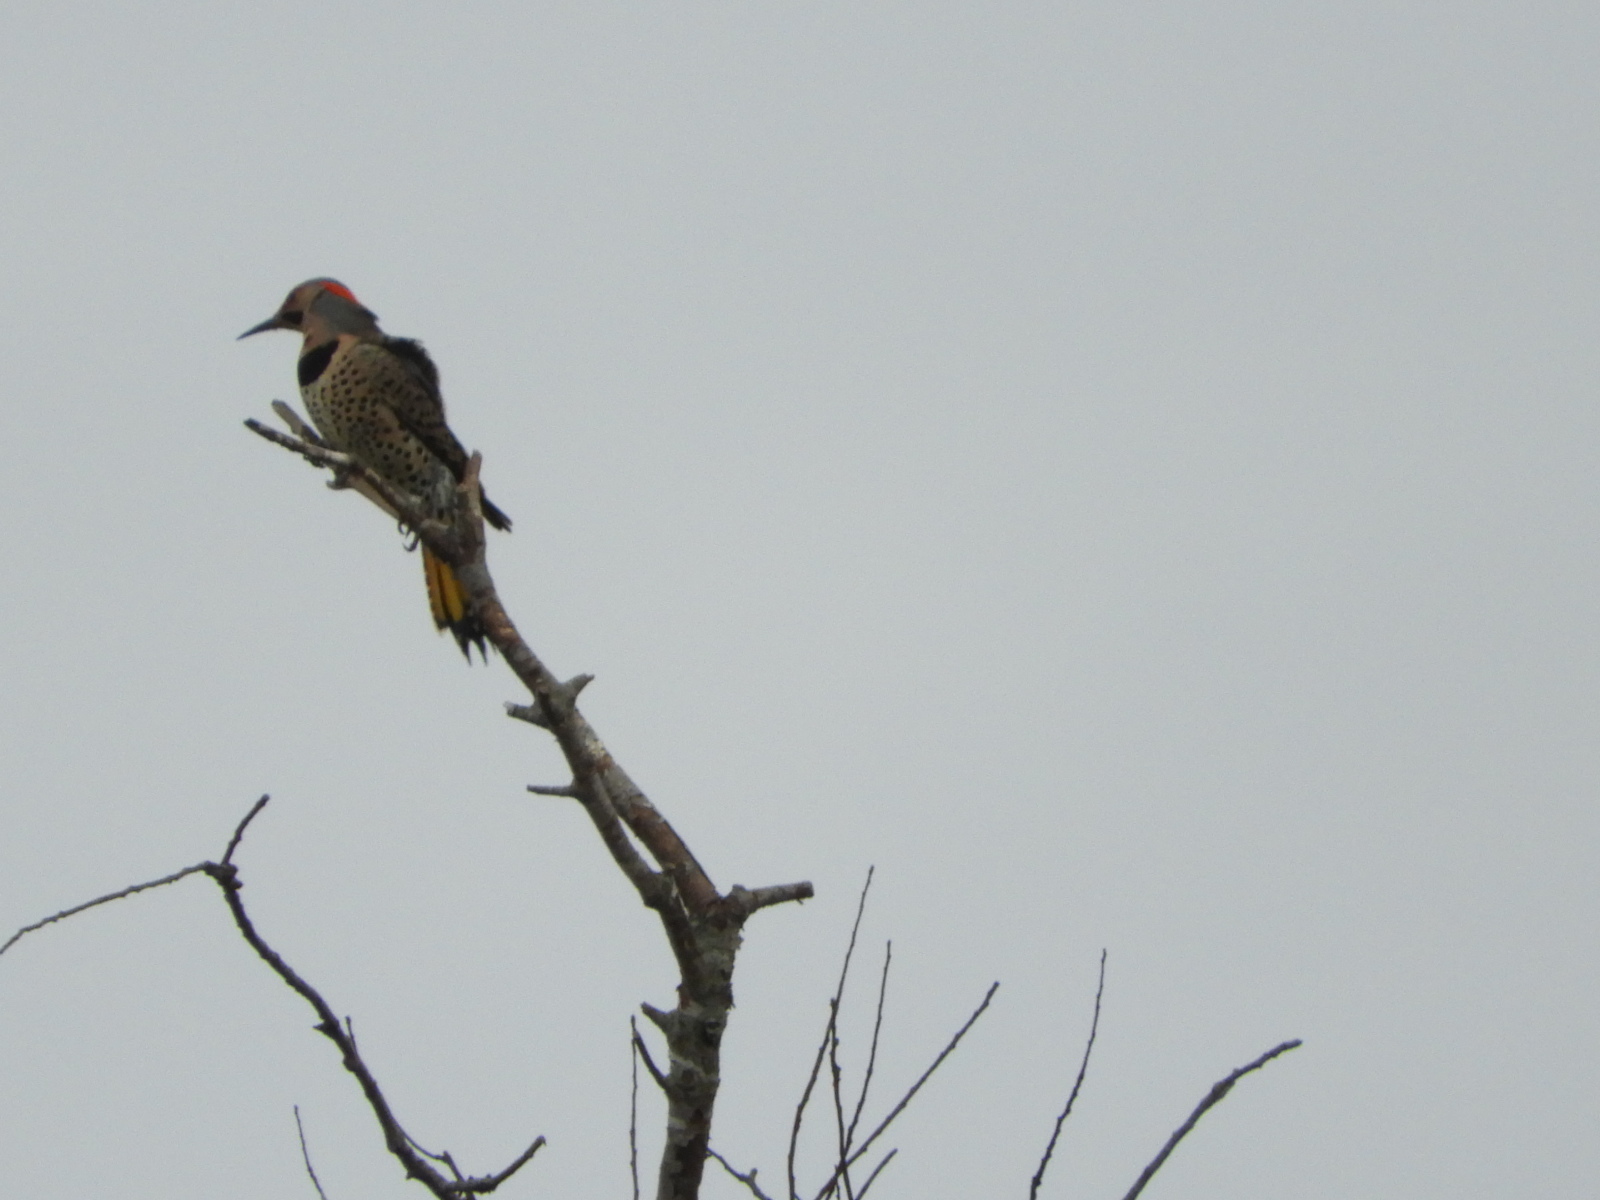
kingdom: Animalia
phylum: Chordata
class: Aves
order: Piciformes
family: Picidae
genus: Colaptes
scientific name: Colaptes auratus
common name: Northern flicker
